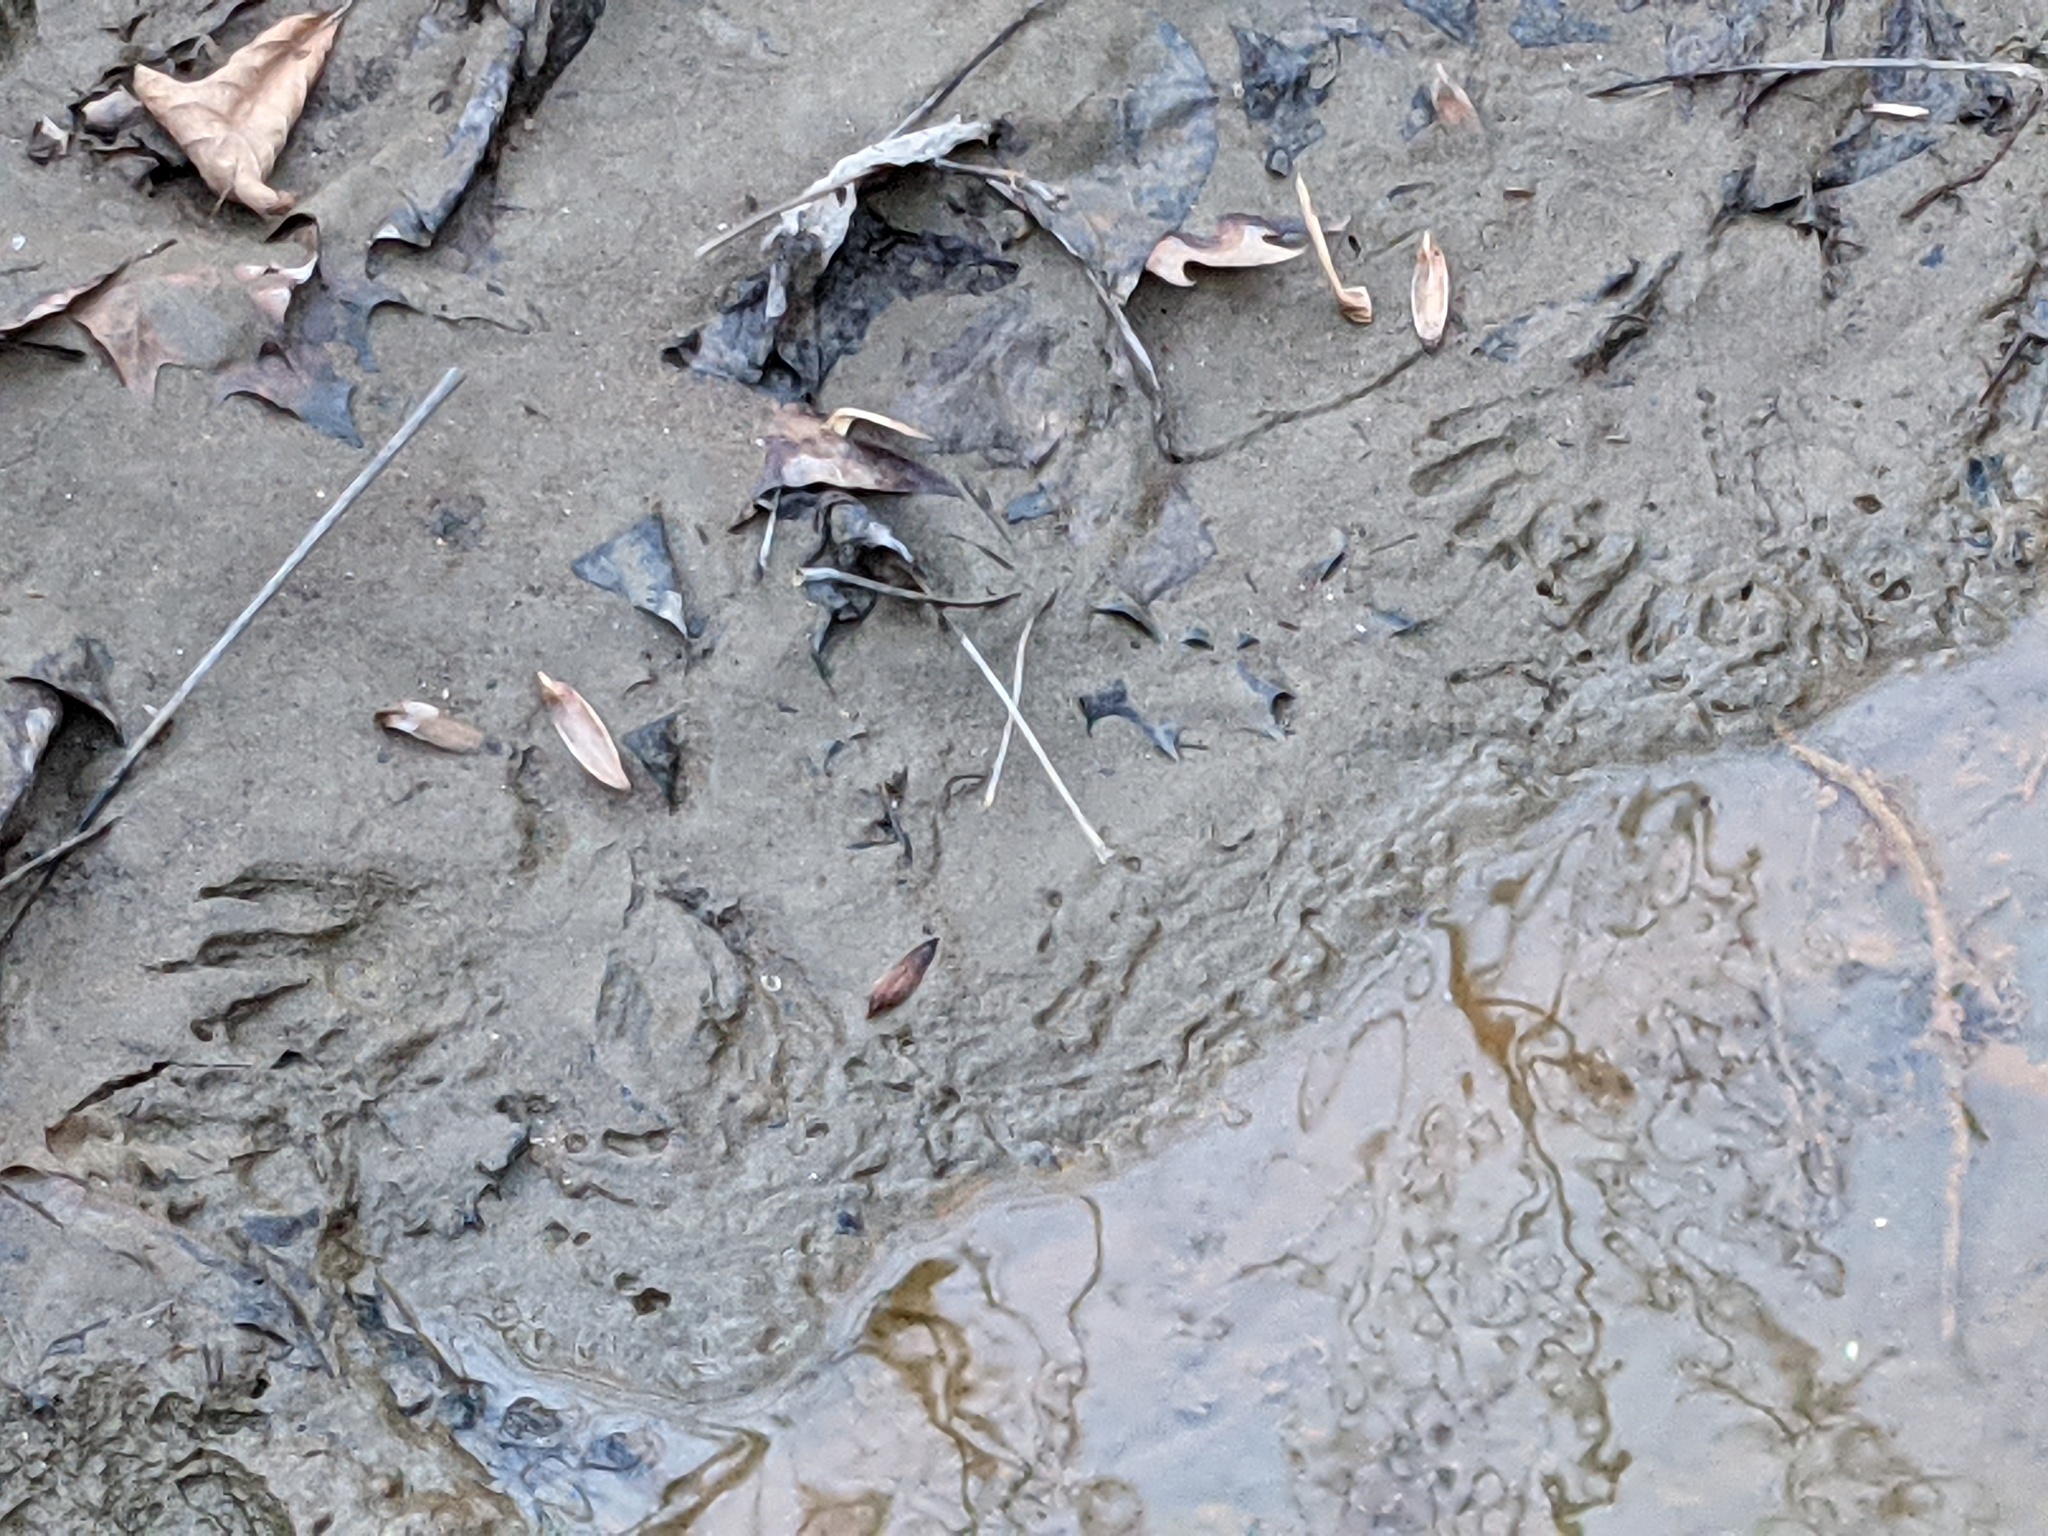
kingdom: Animalia
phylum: Chordata
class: Mammalia
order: Carnivora
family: Procyonidae
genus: Procyon
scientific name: Procyon lotor
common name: Raccoon
